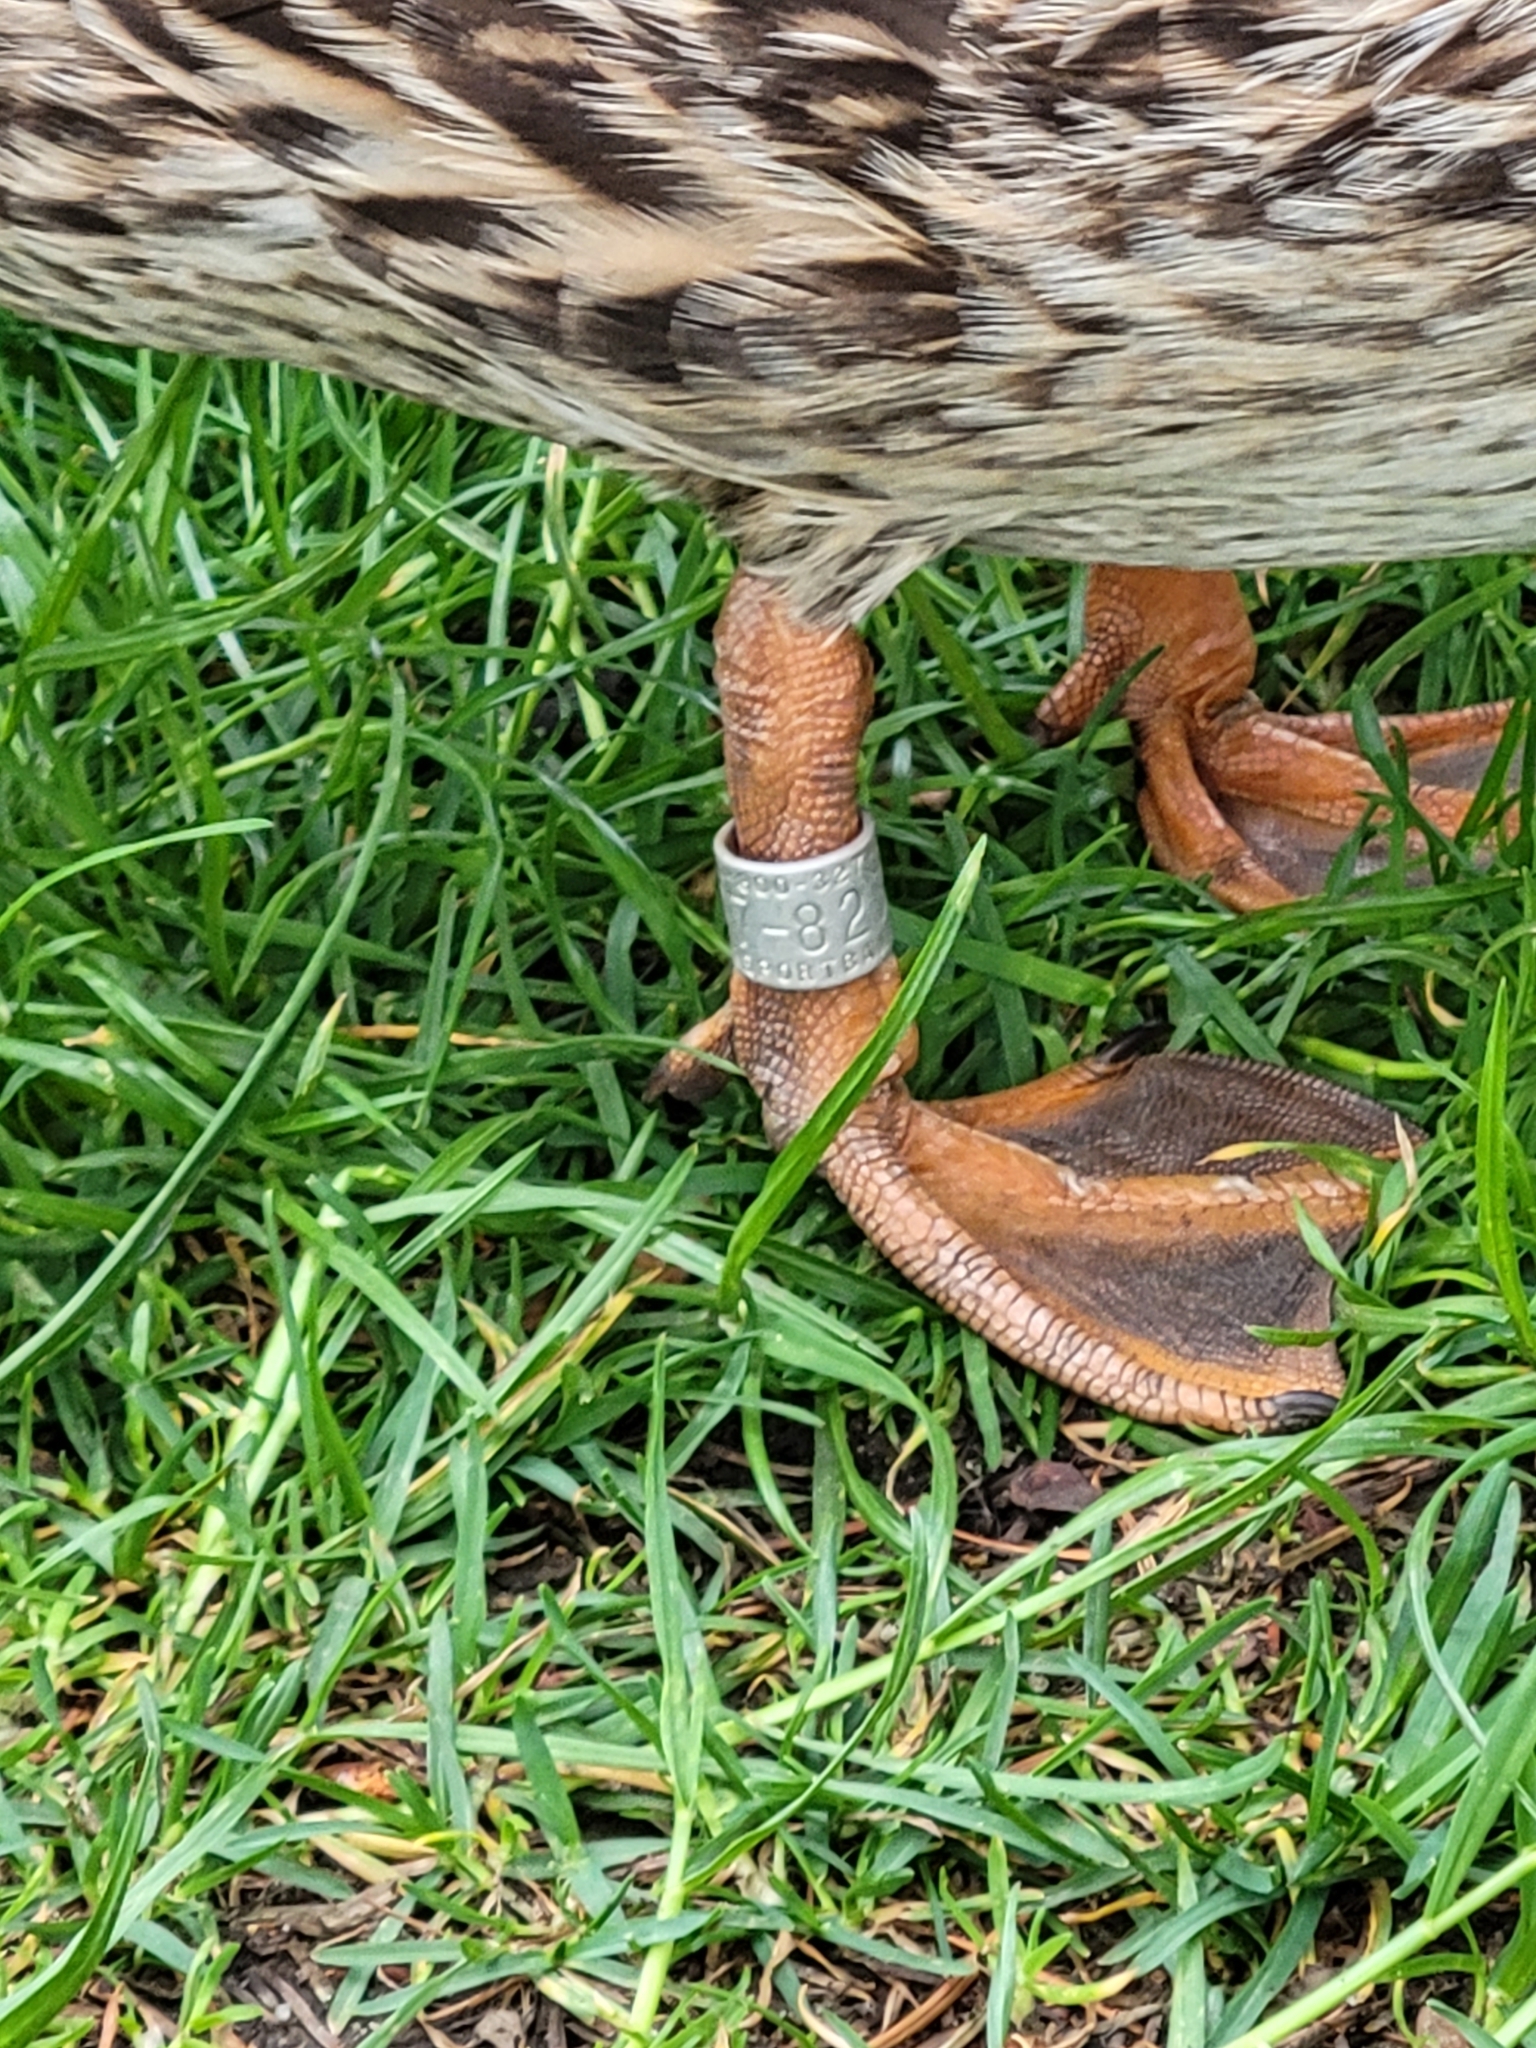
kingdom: Animalia
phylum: Chordata
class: Aves
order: Anseriformes
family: Anatidae
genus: Anas
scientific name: Anas platyrhynchos
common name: Mallard
